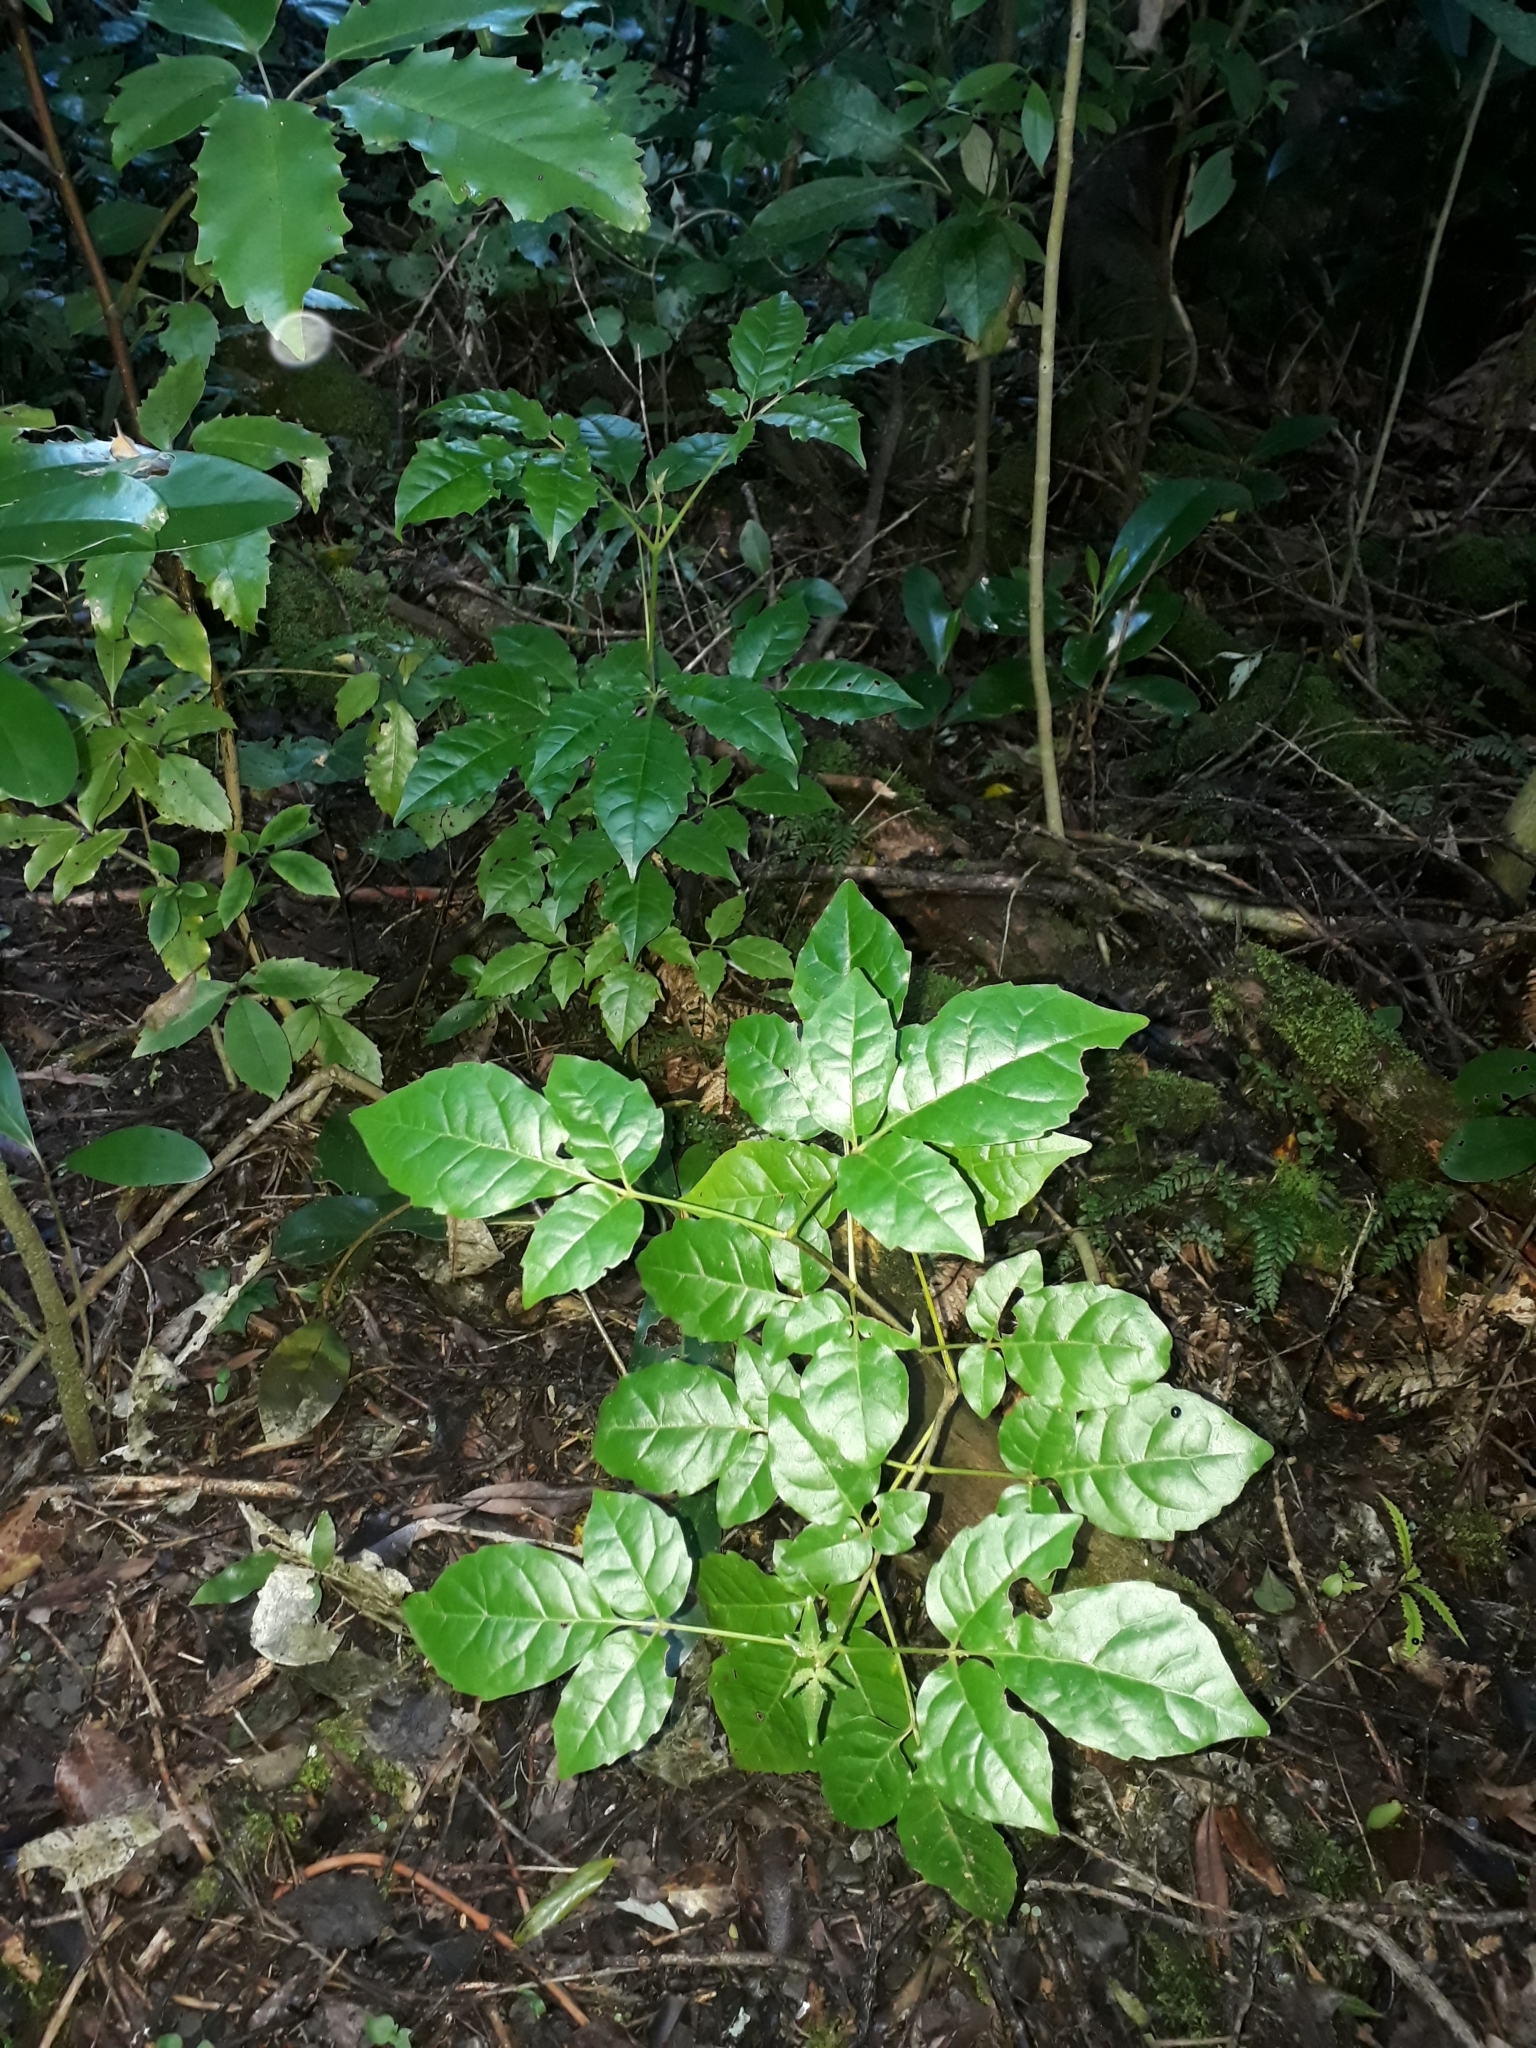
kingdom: Plantae
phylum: Tracheophyta
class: Magnoliopsida
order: Lamiales
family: Lamiaceae
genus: Vitex
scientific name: Vitex lucens
